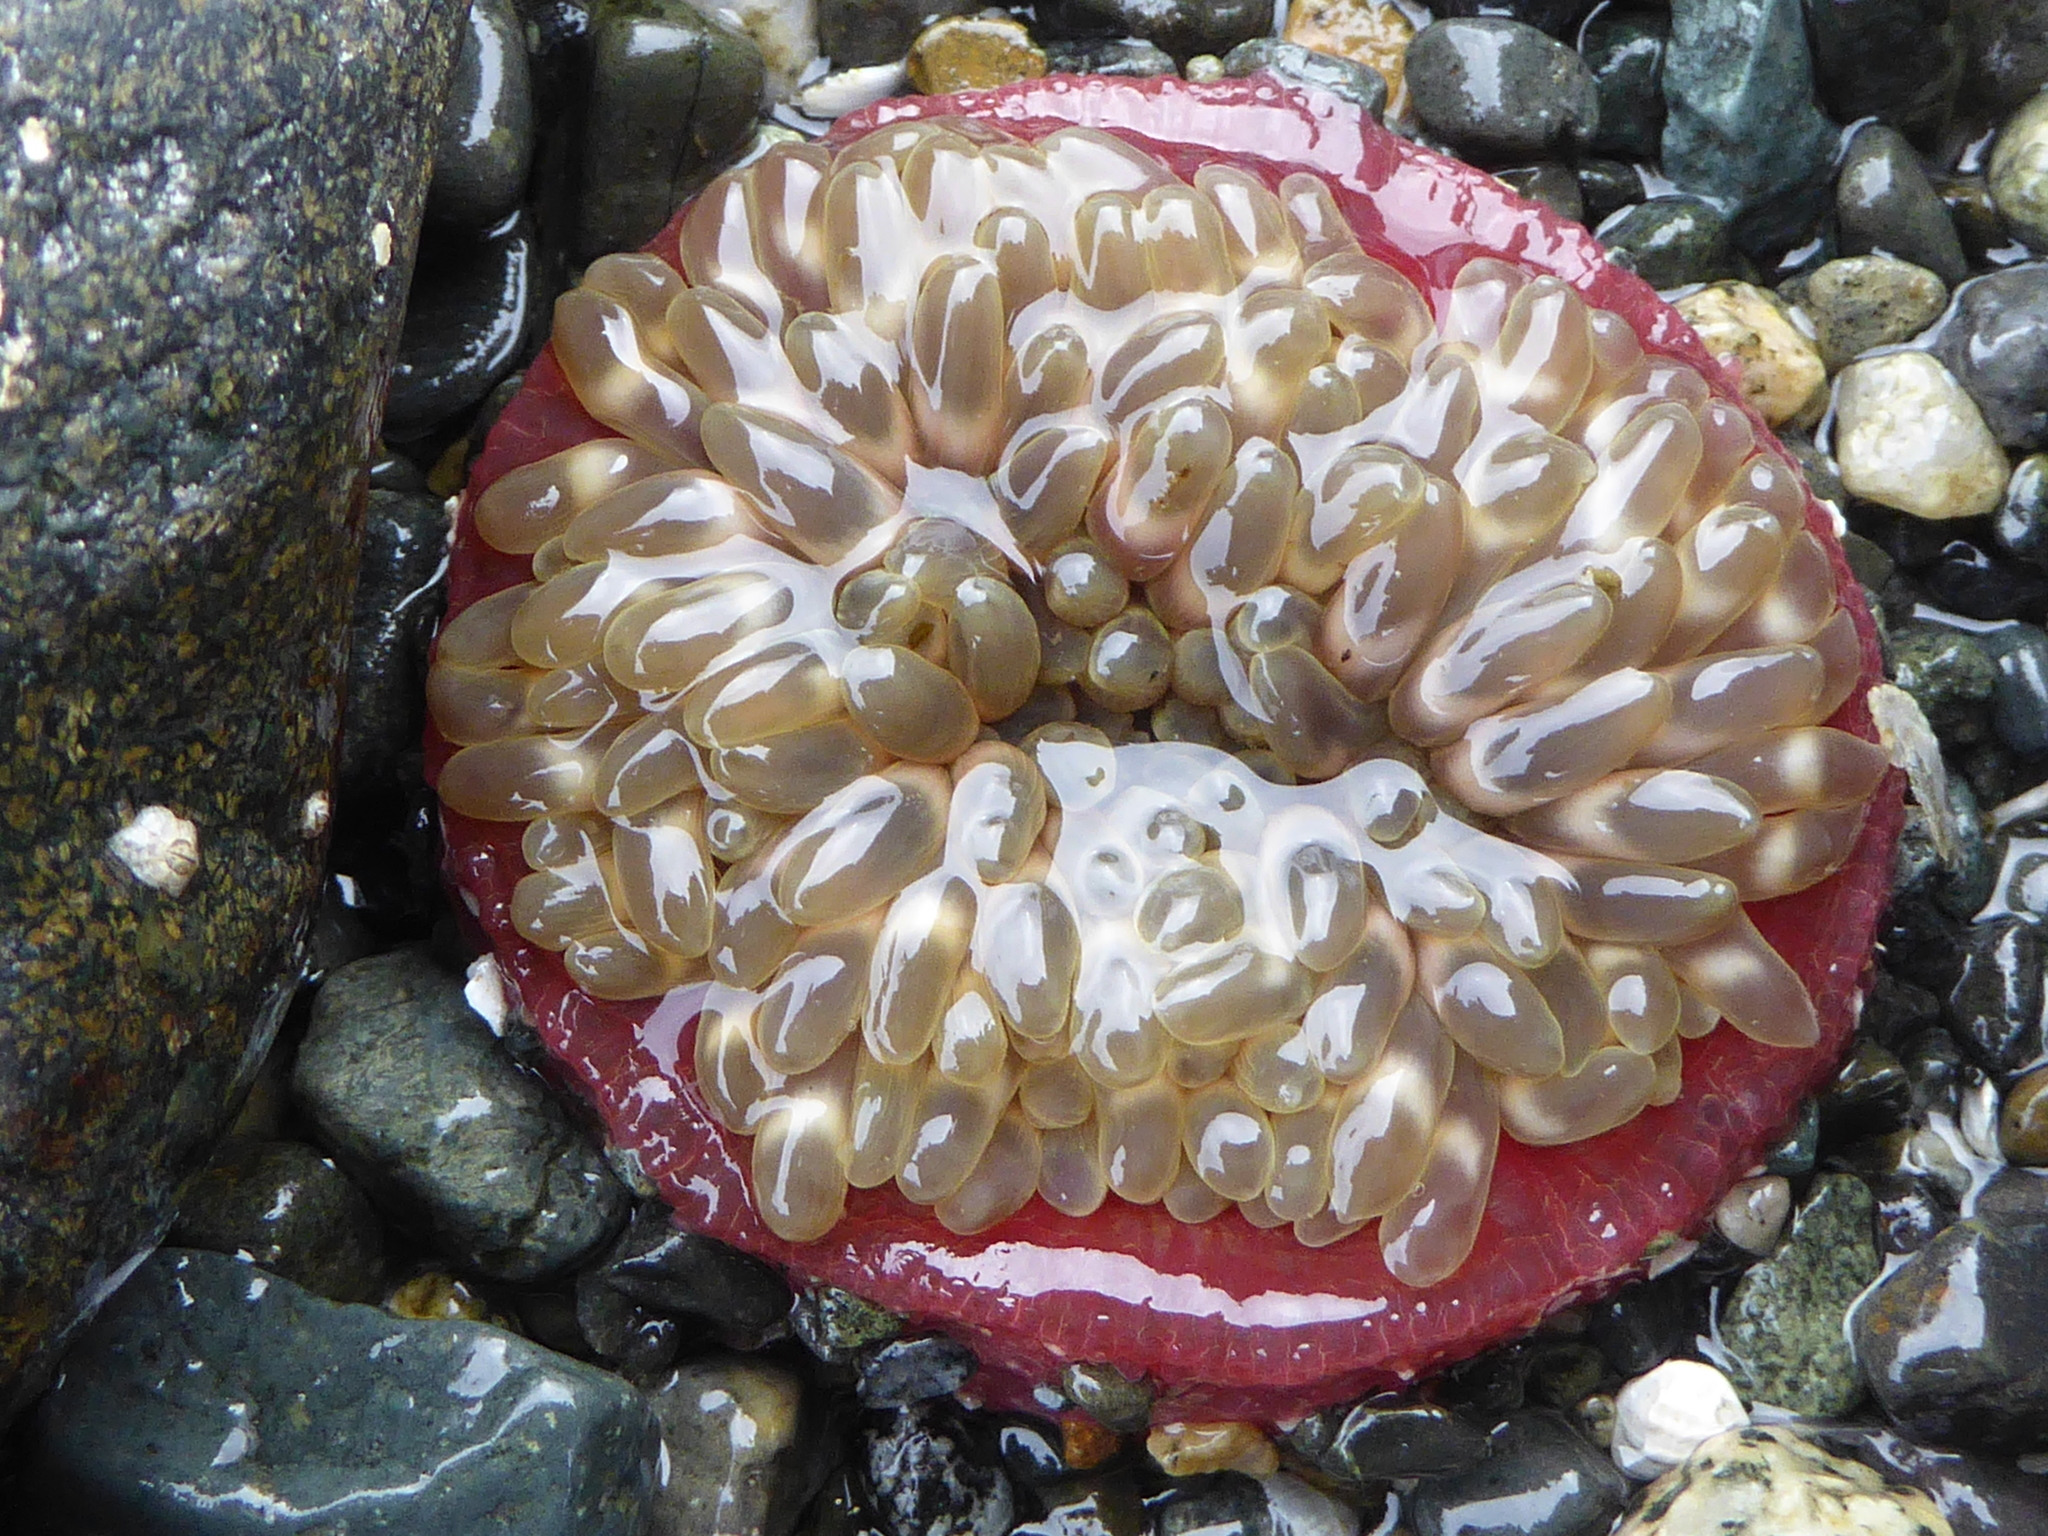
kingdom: Animalia
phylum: Cnidaria
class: Anthozoa
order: Actiniaria
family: Actiniidae
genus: Urticina
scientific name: Urticina clandestina
